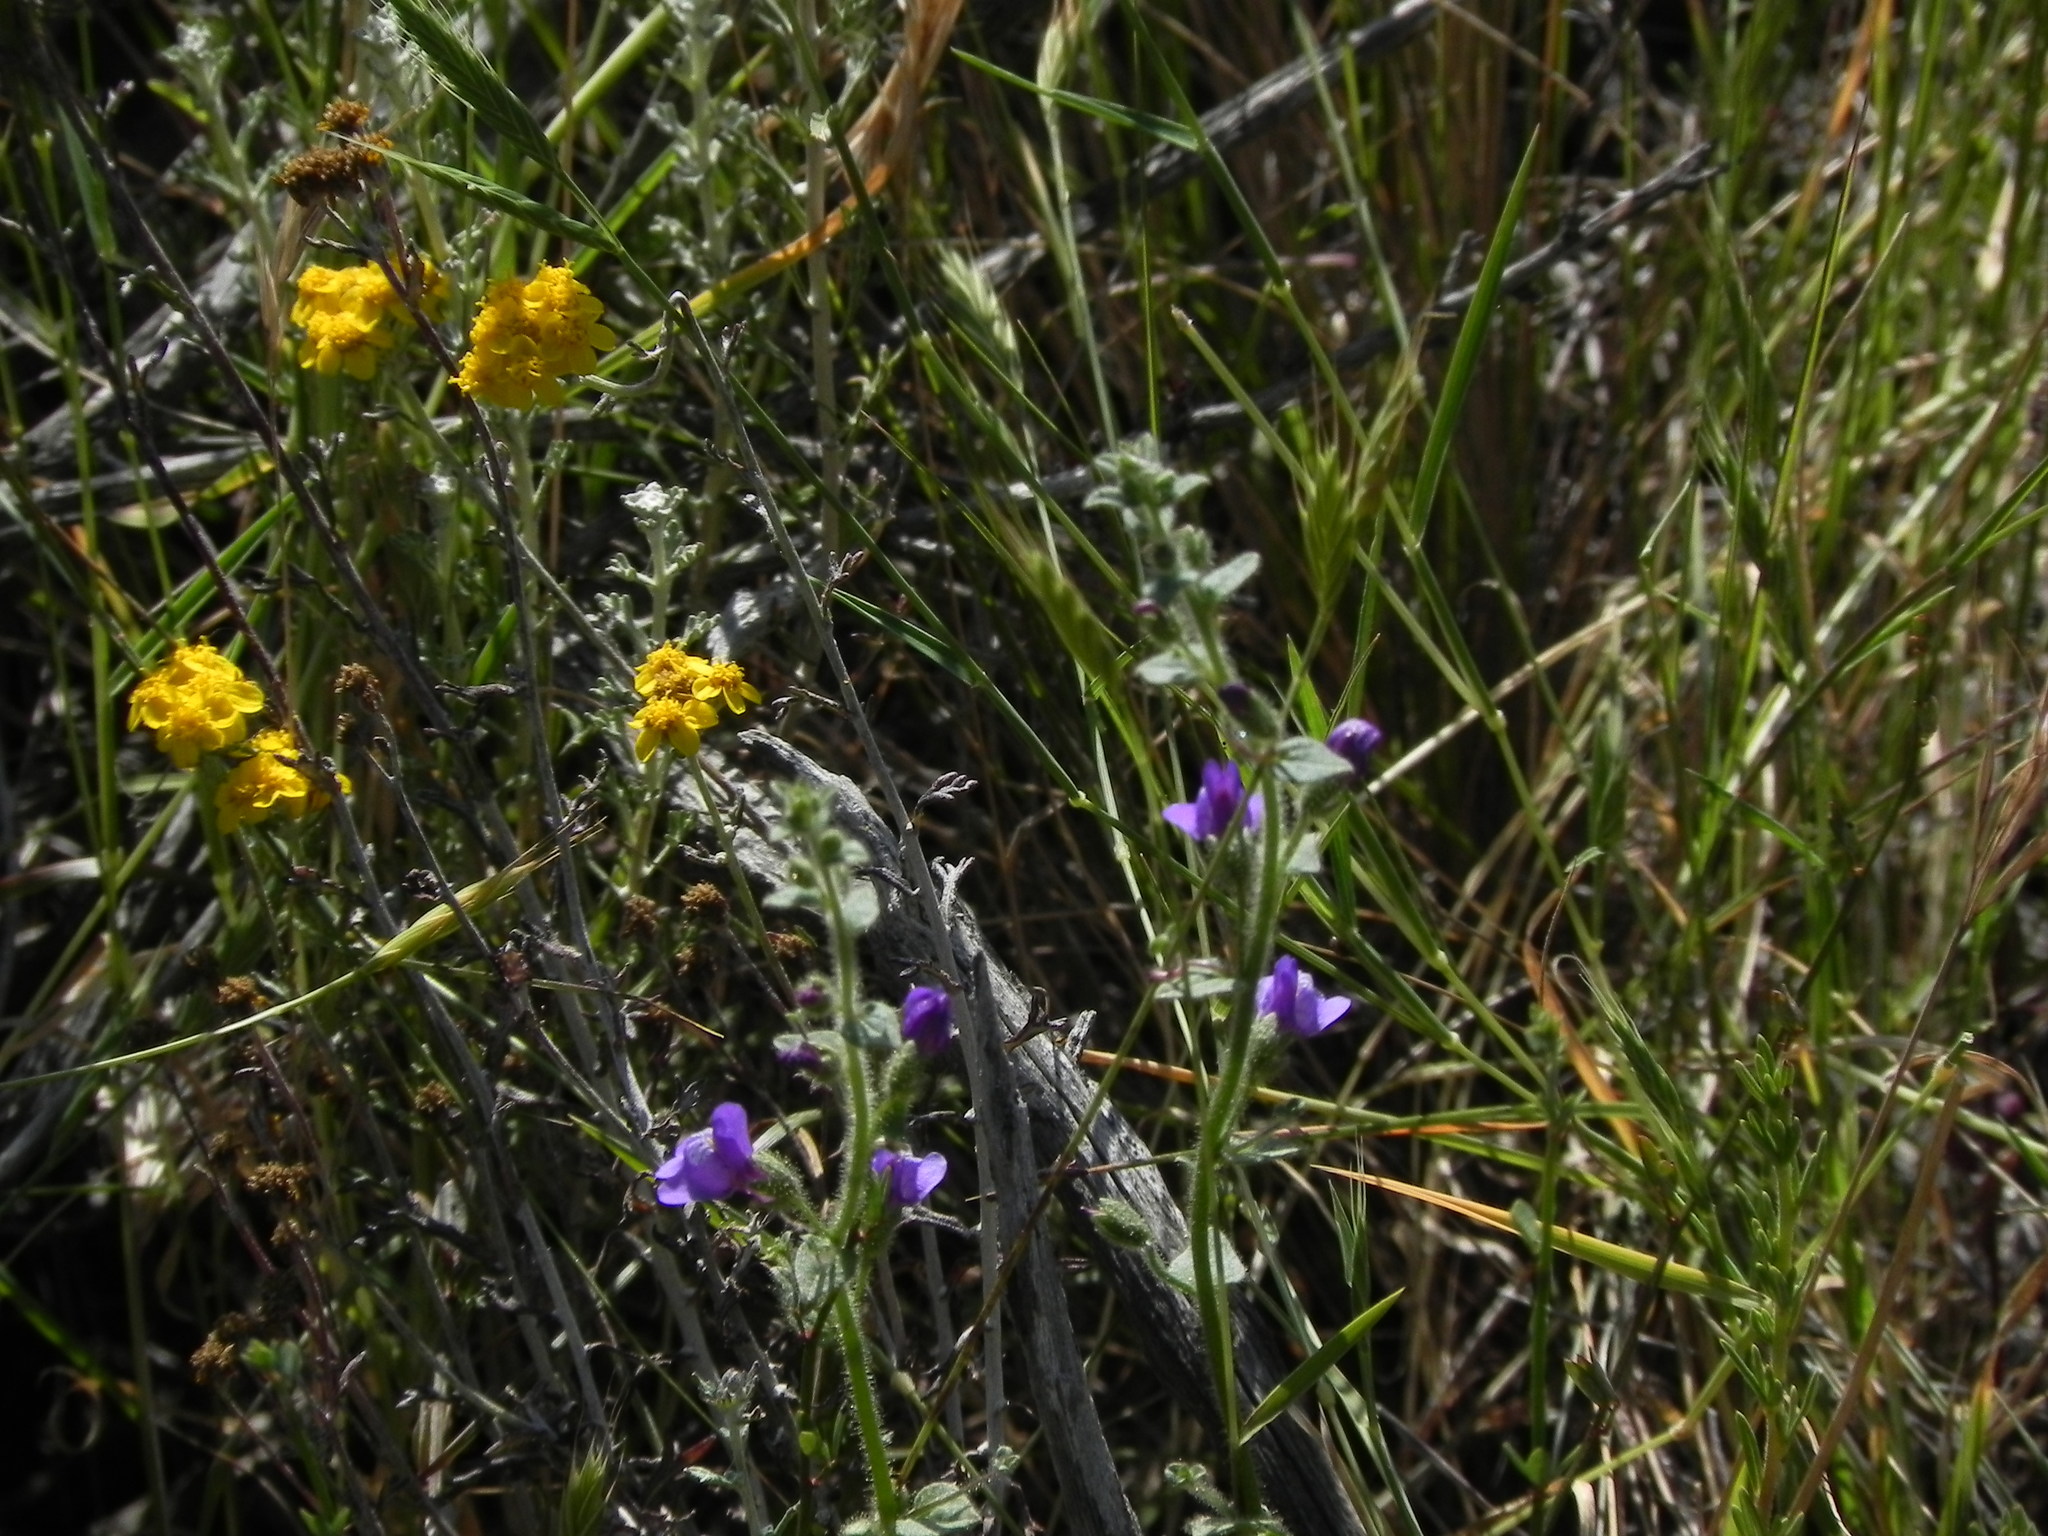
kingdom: Plantae
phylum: Tracheophyta
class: Magnoliopsida
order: Lamiales
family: Plantaginaceae
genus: Sairocarpus
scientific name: Sairocarpus nuttallianus
